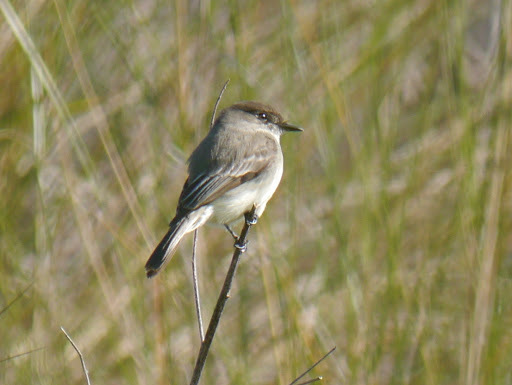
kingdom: Animalia
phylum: Chordata
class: Aves
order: Passeriformes
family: Tyrannidae
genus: Sayornis
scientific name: Sayornis phoebe
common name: Eastern phoebe
